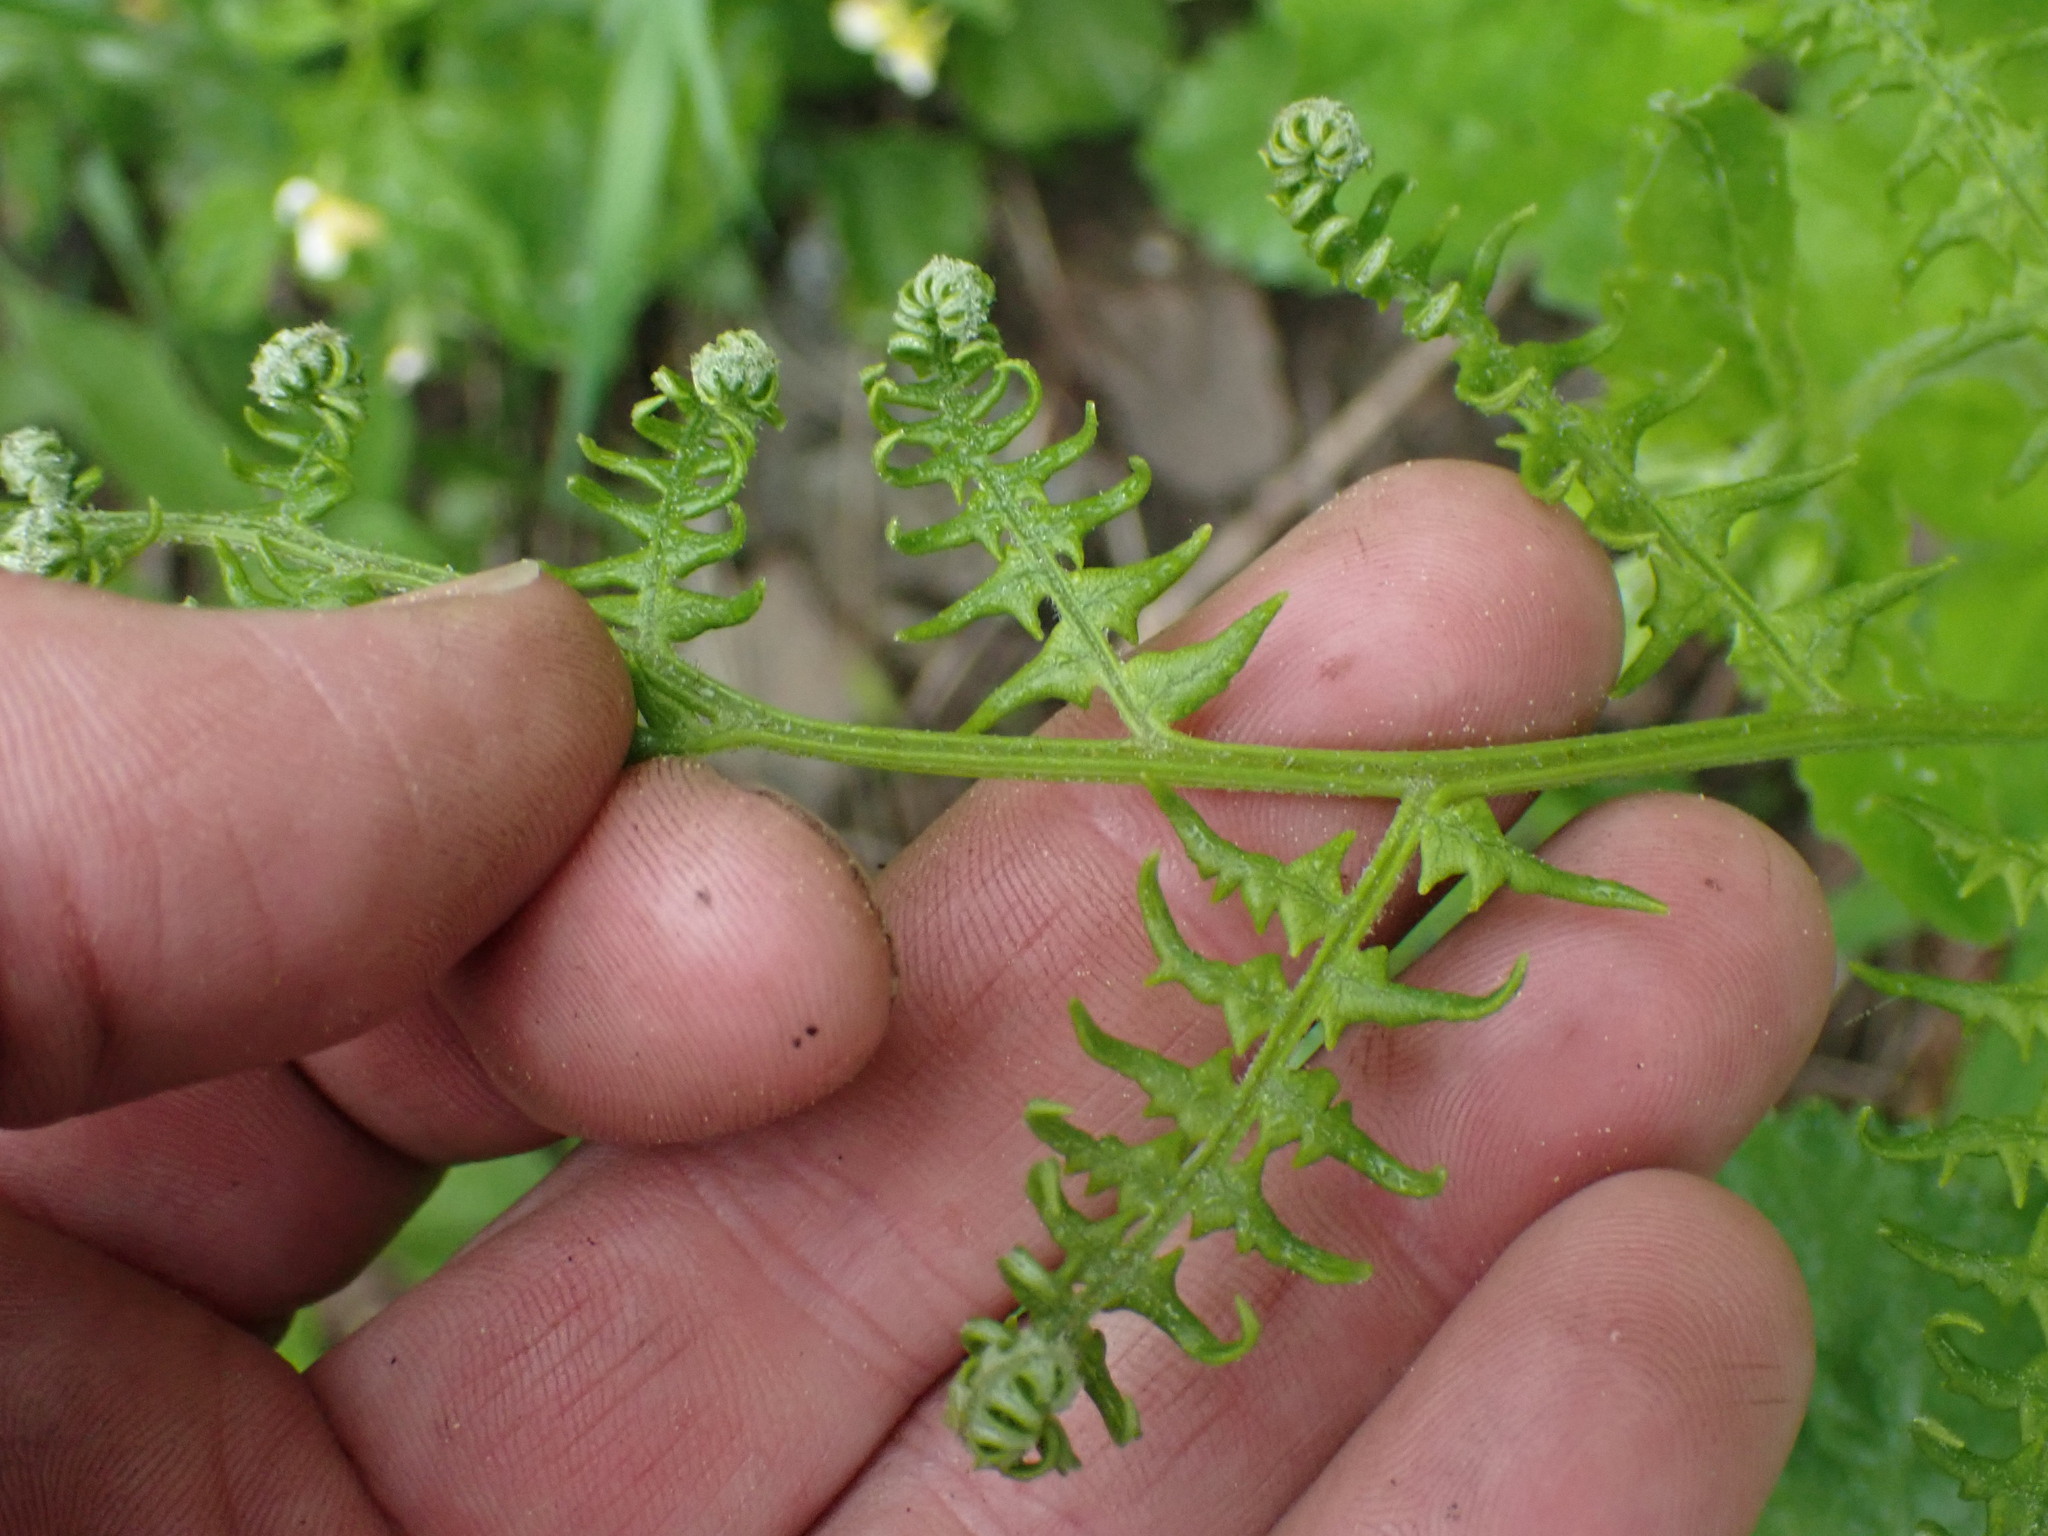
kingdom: Plantae
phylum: Tracheophyta
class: Polypodiopsida
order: Polypodiales
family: Dennstaedtiaceae
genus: Pteridium
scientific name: Pteridium aquilinum
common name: Bracken
